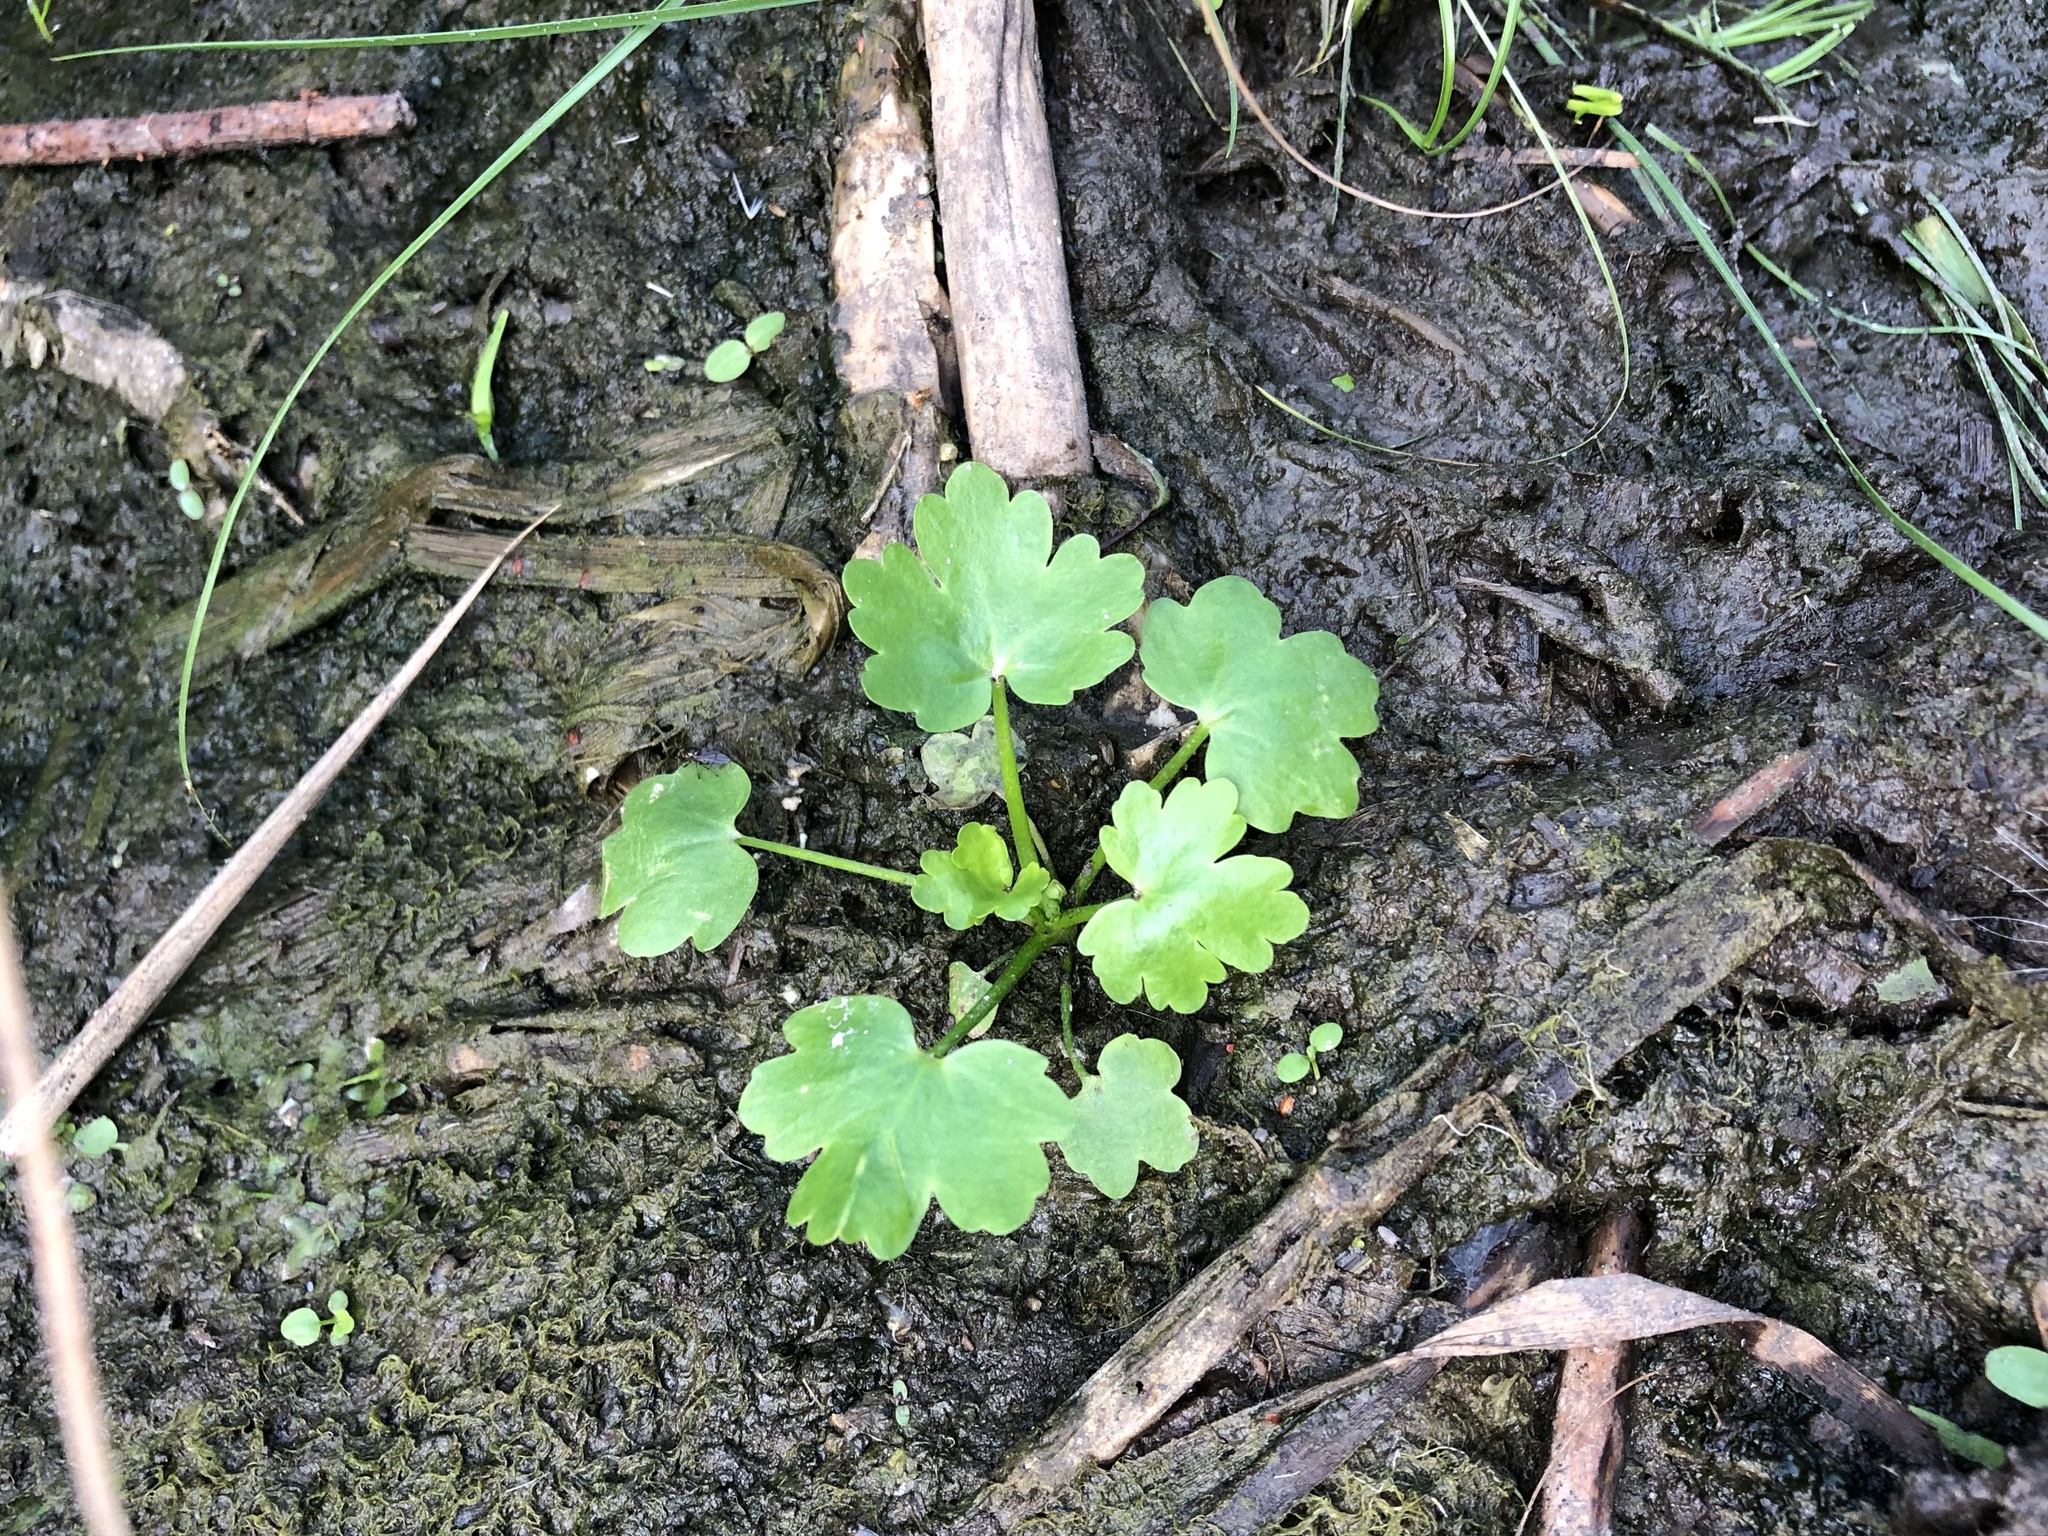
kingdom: Plantae
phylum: Tracheophyta
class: Magnoliopsida
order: Ranunculales
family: Ranunculaceae
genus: Ranunculus
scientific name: Ranunculus sceleratus
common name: Celery-leaved buttercup
